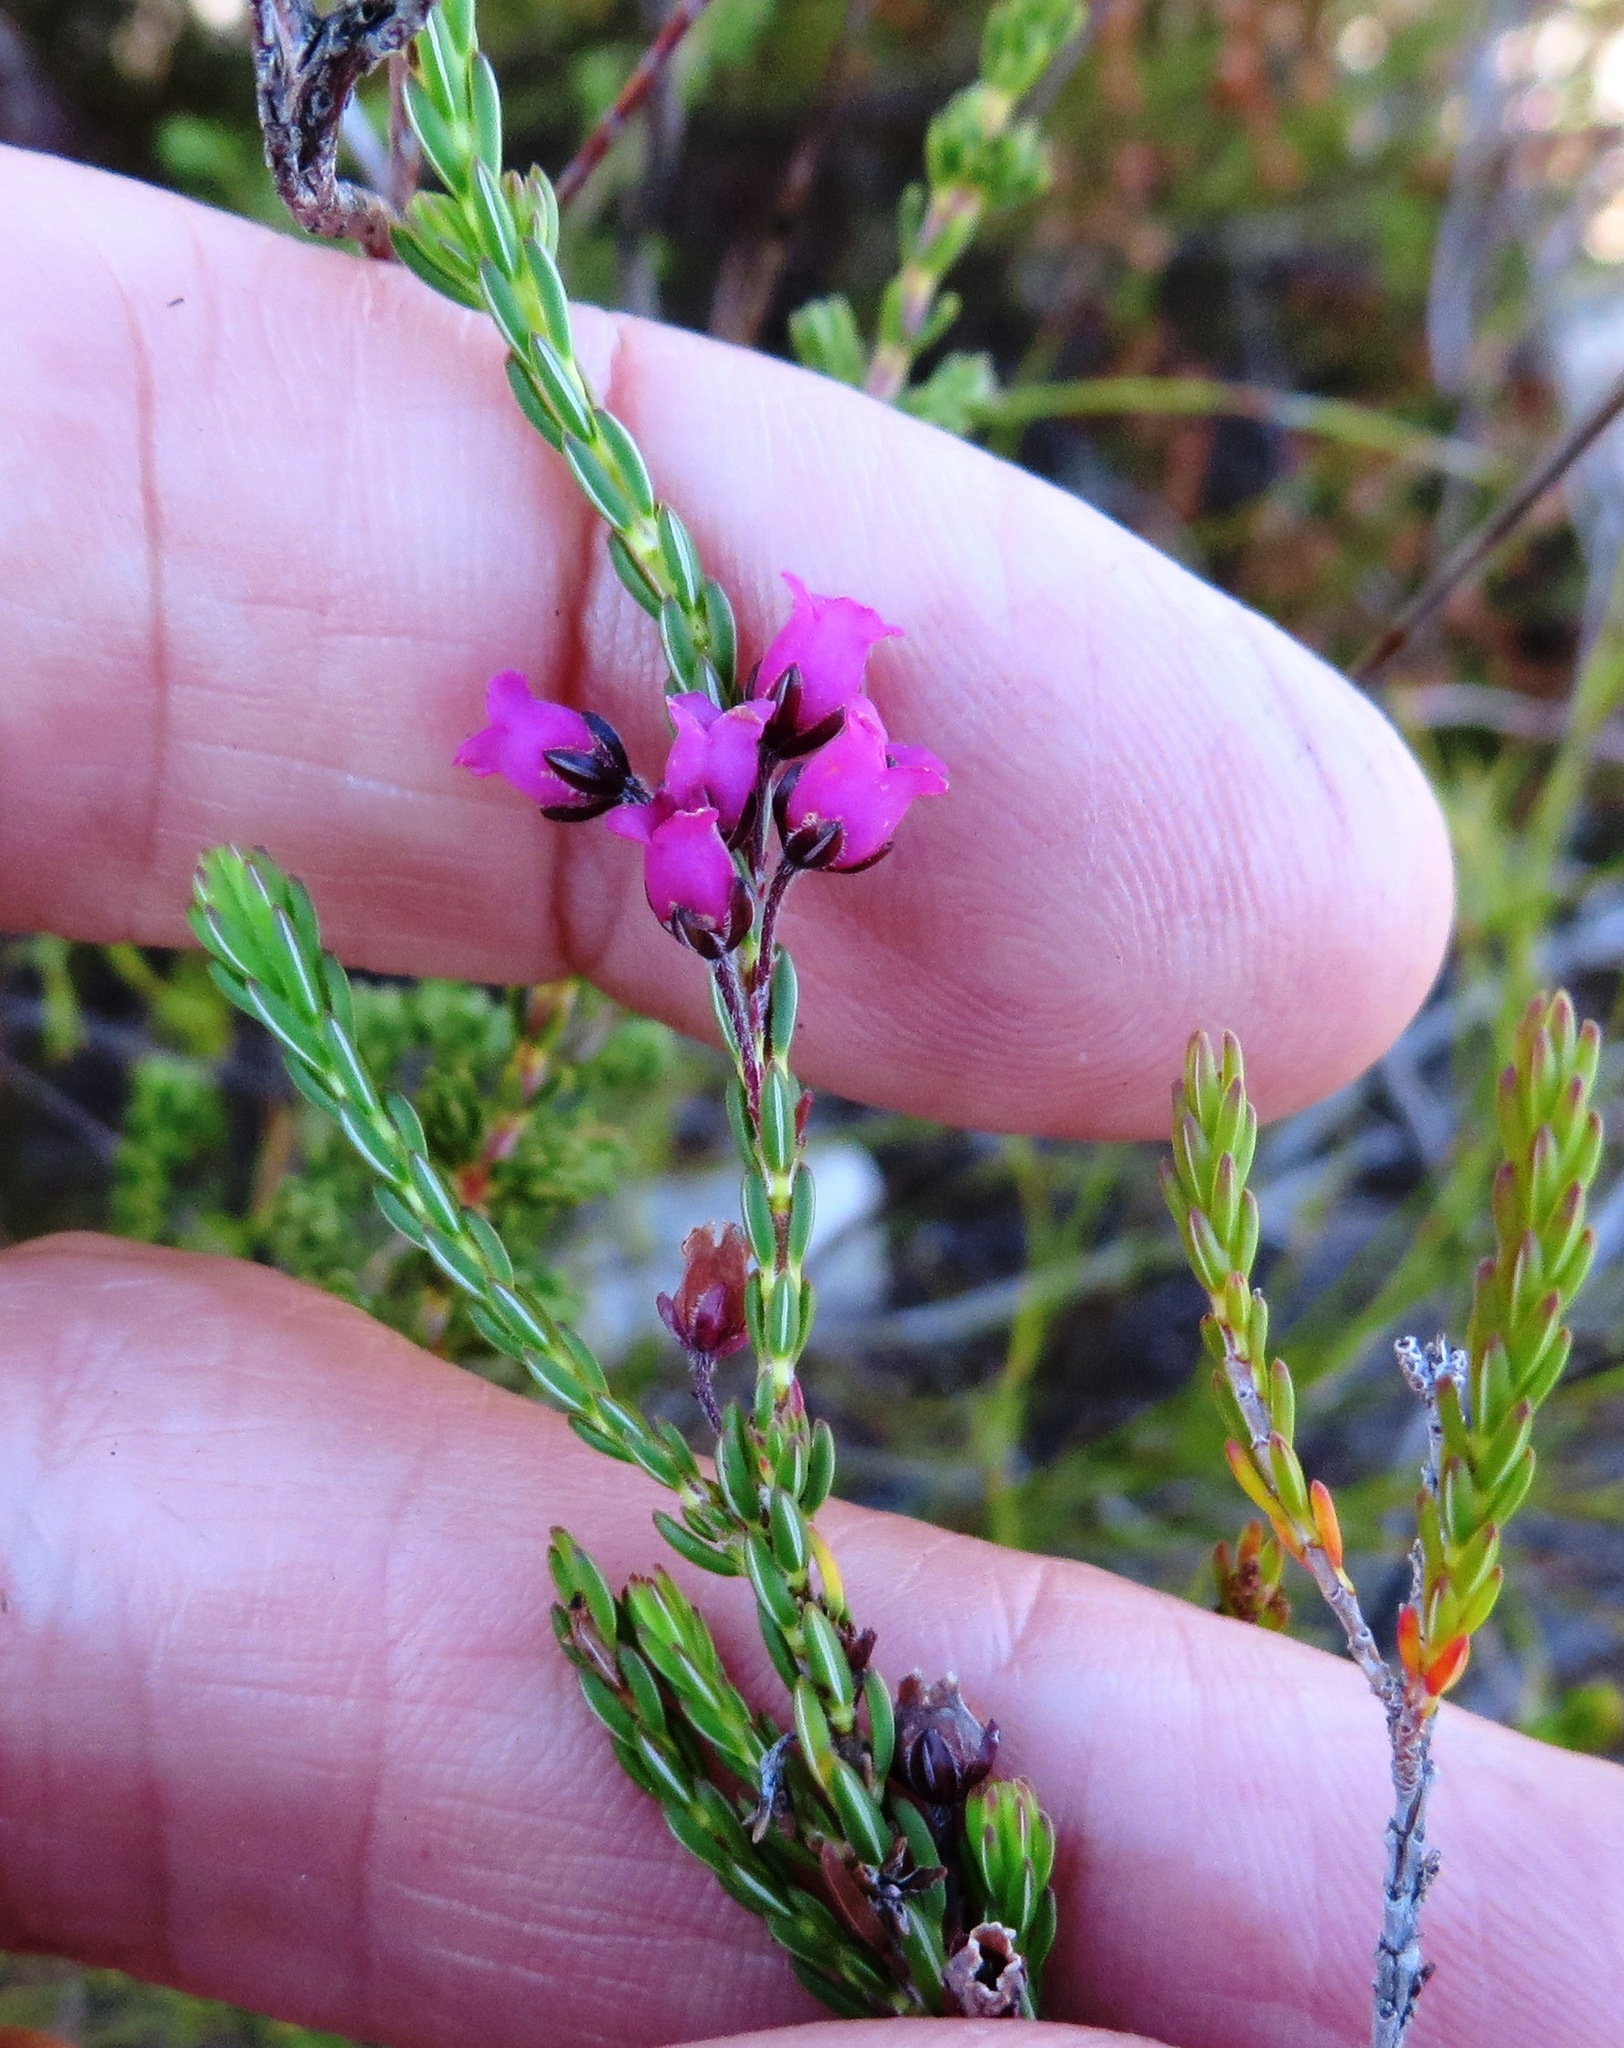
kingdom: Plantae
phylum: Tracheophyta
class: Magnoliopsida
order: Ericales
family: Ericaceae
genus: Erica
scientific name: Erica pulchella
